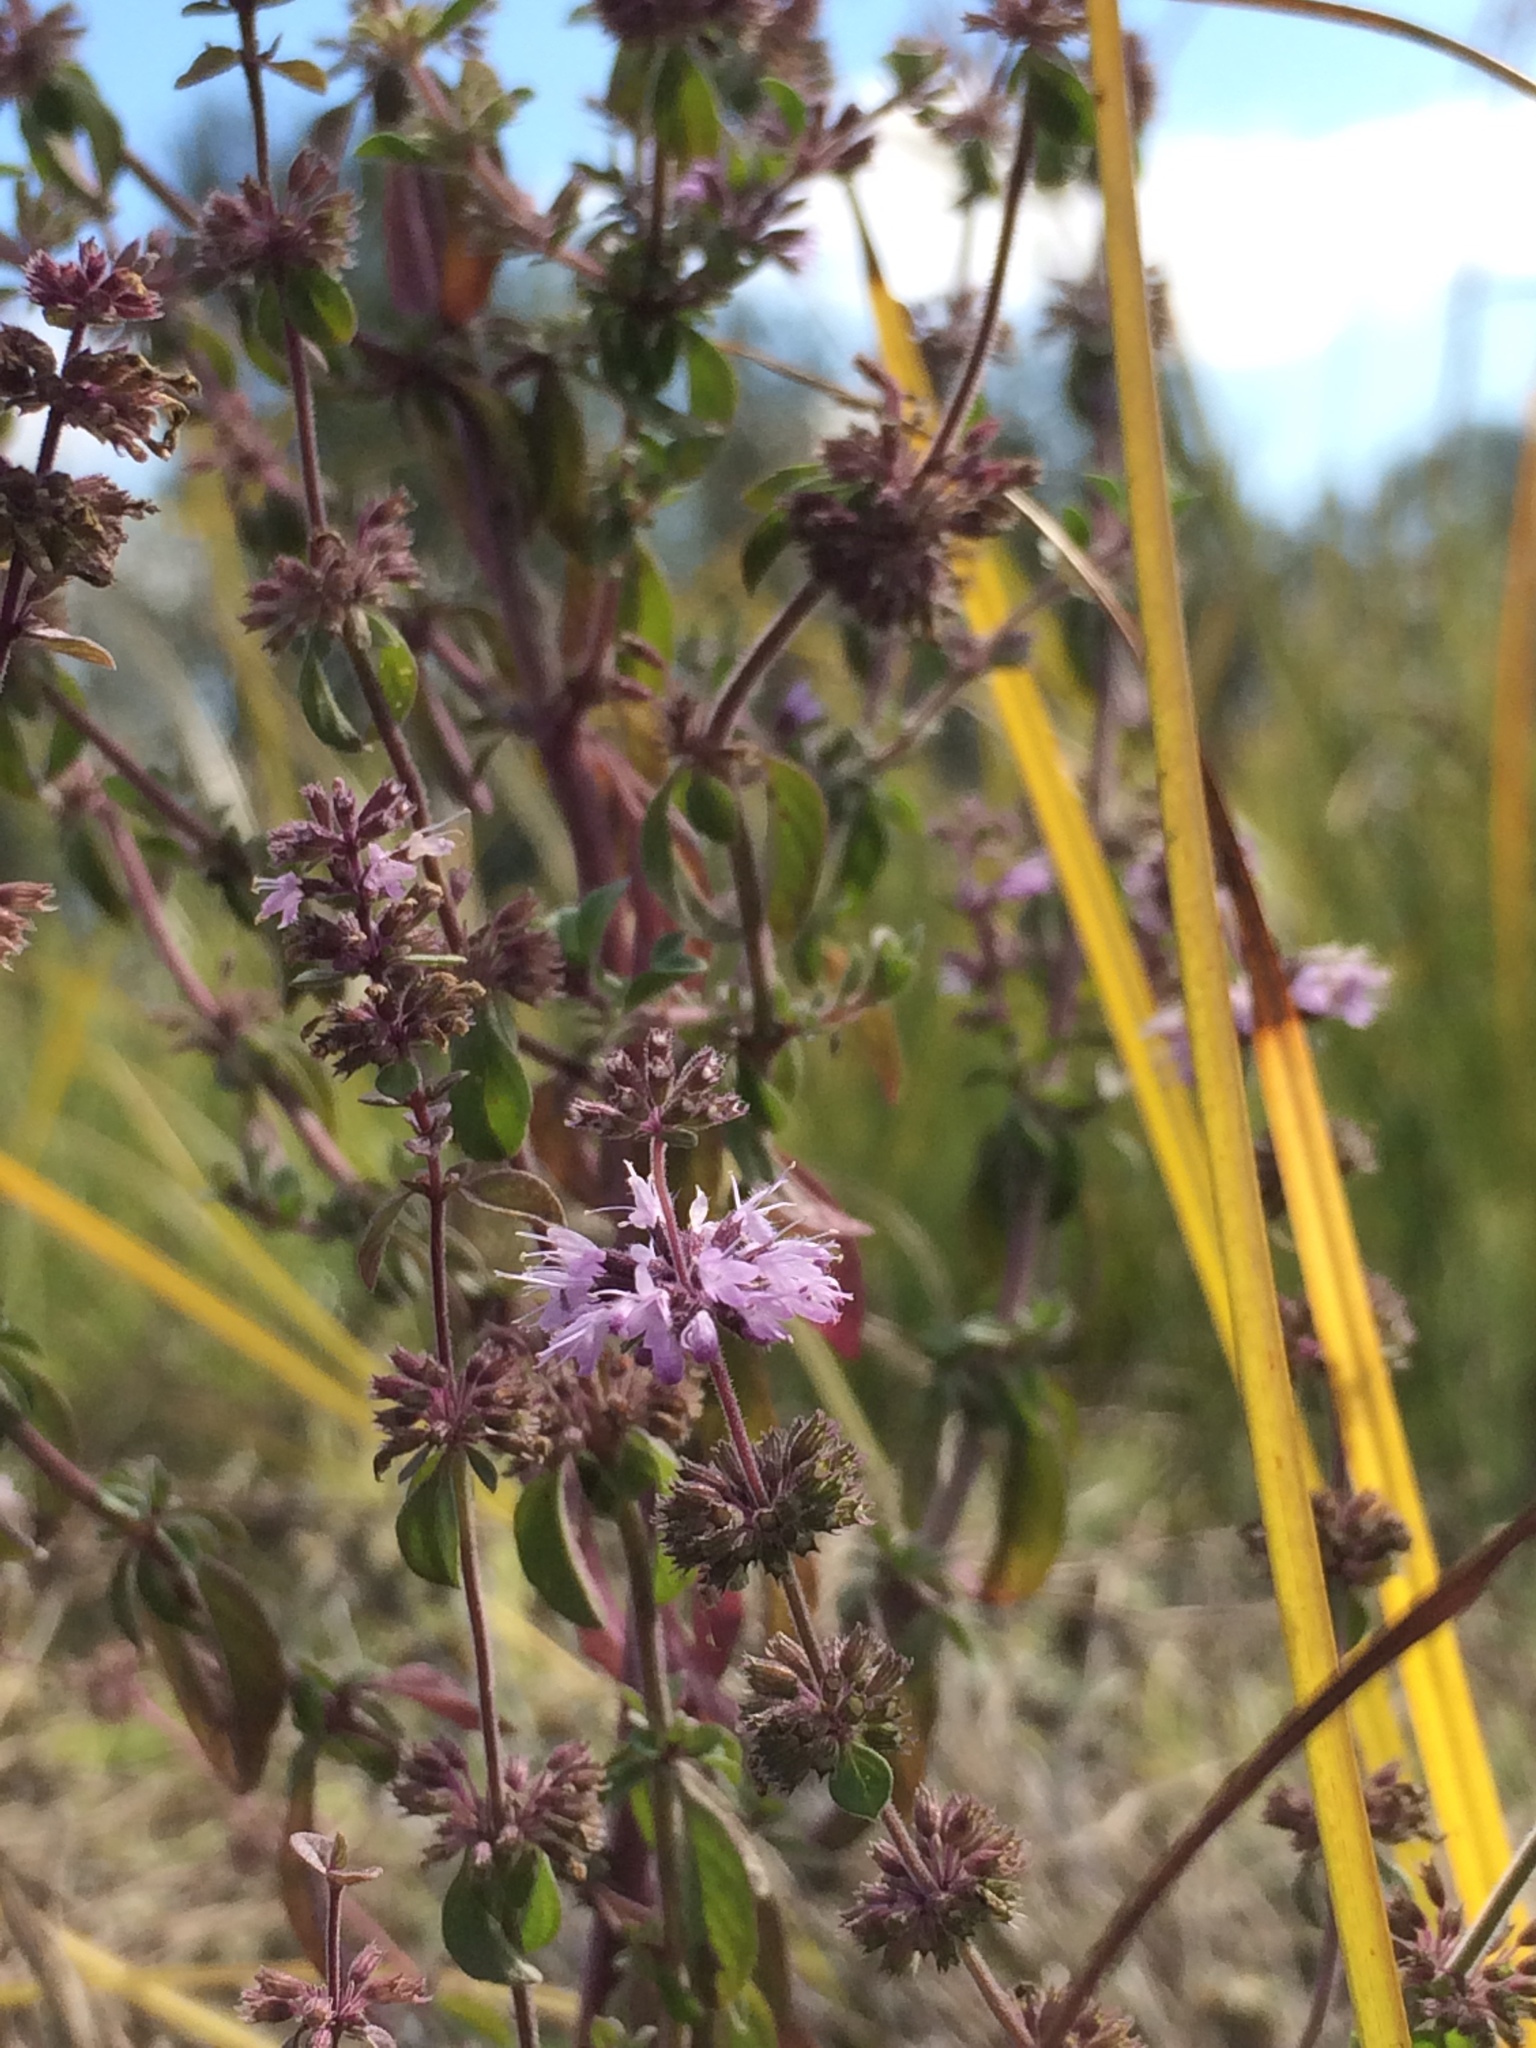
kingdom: Plantae
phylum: Tracheophyta
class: Magnoliopsida
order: Lamiales
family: Lamiaceae
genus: Mentha
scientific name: Mentha pulegium
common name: Pennyroyal
